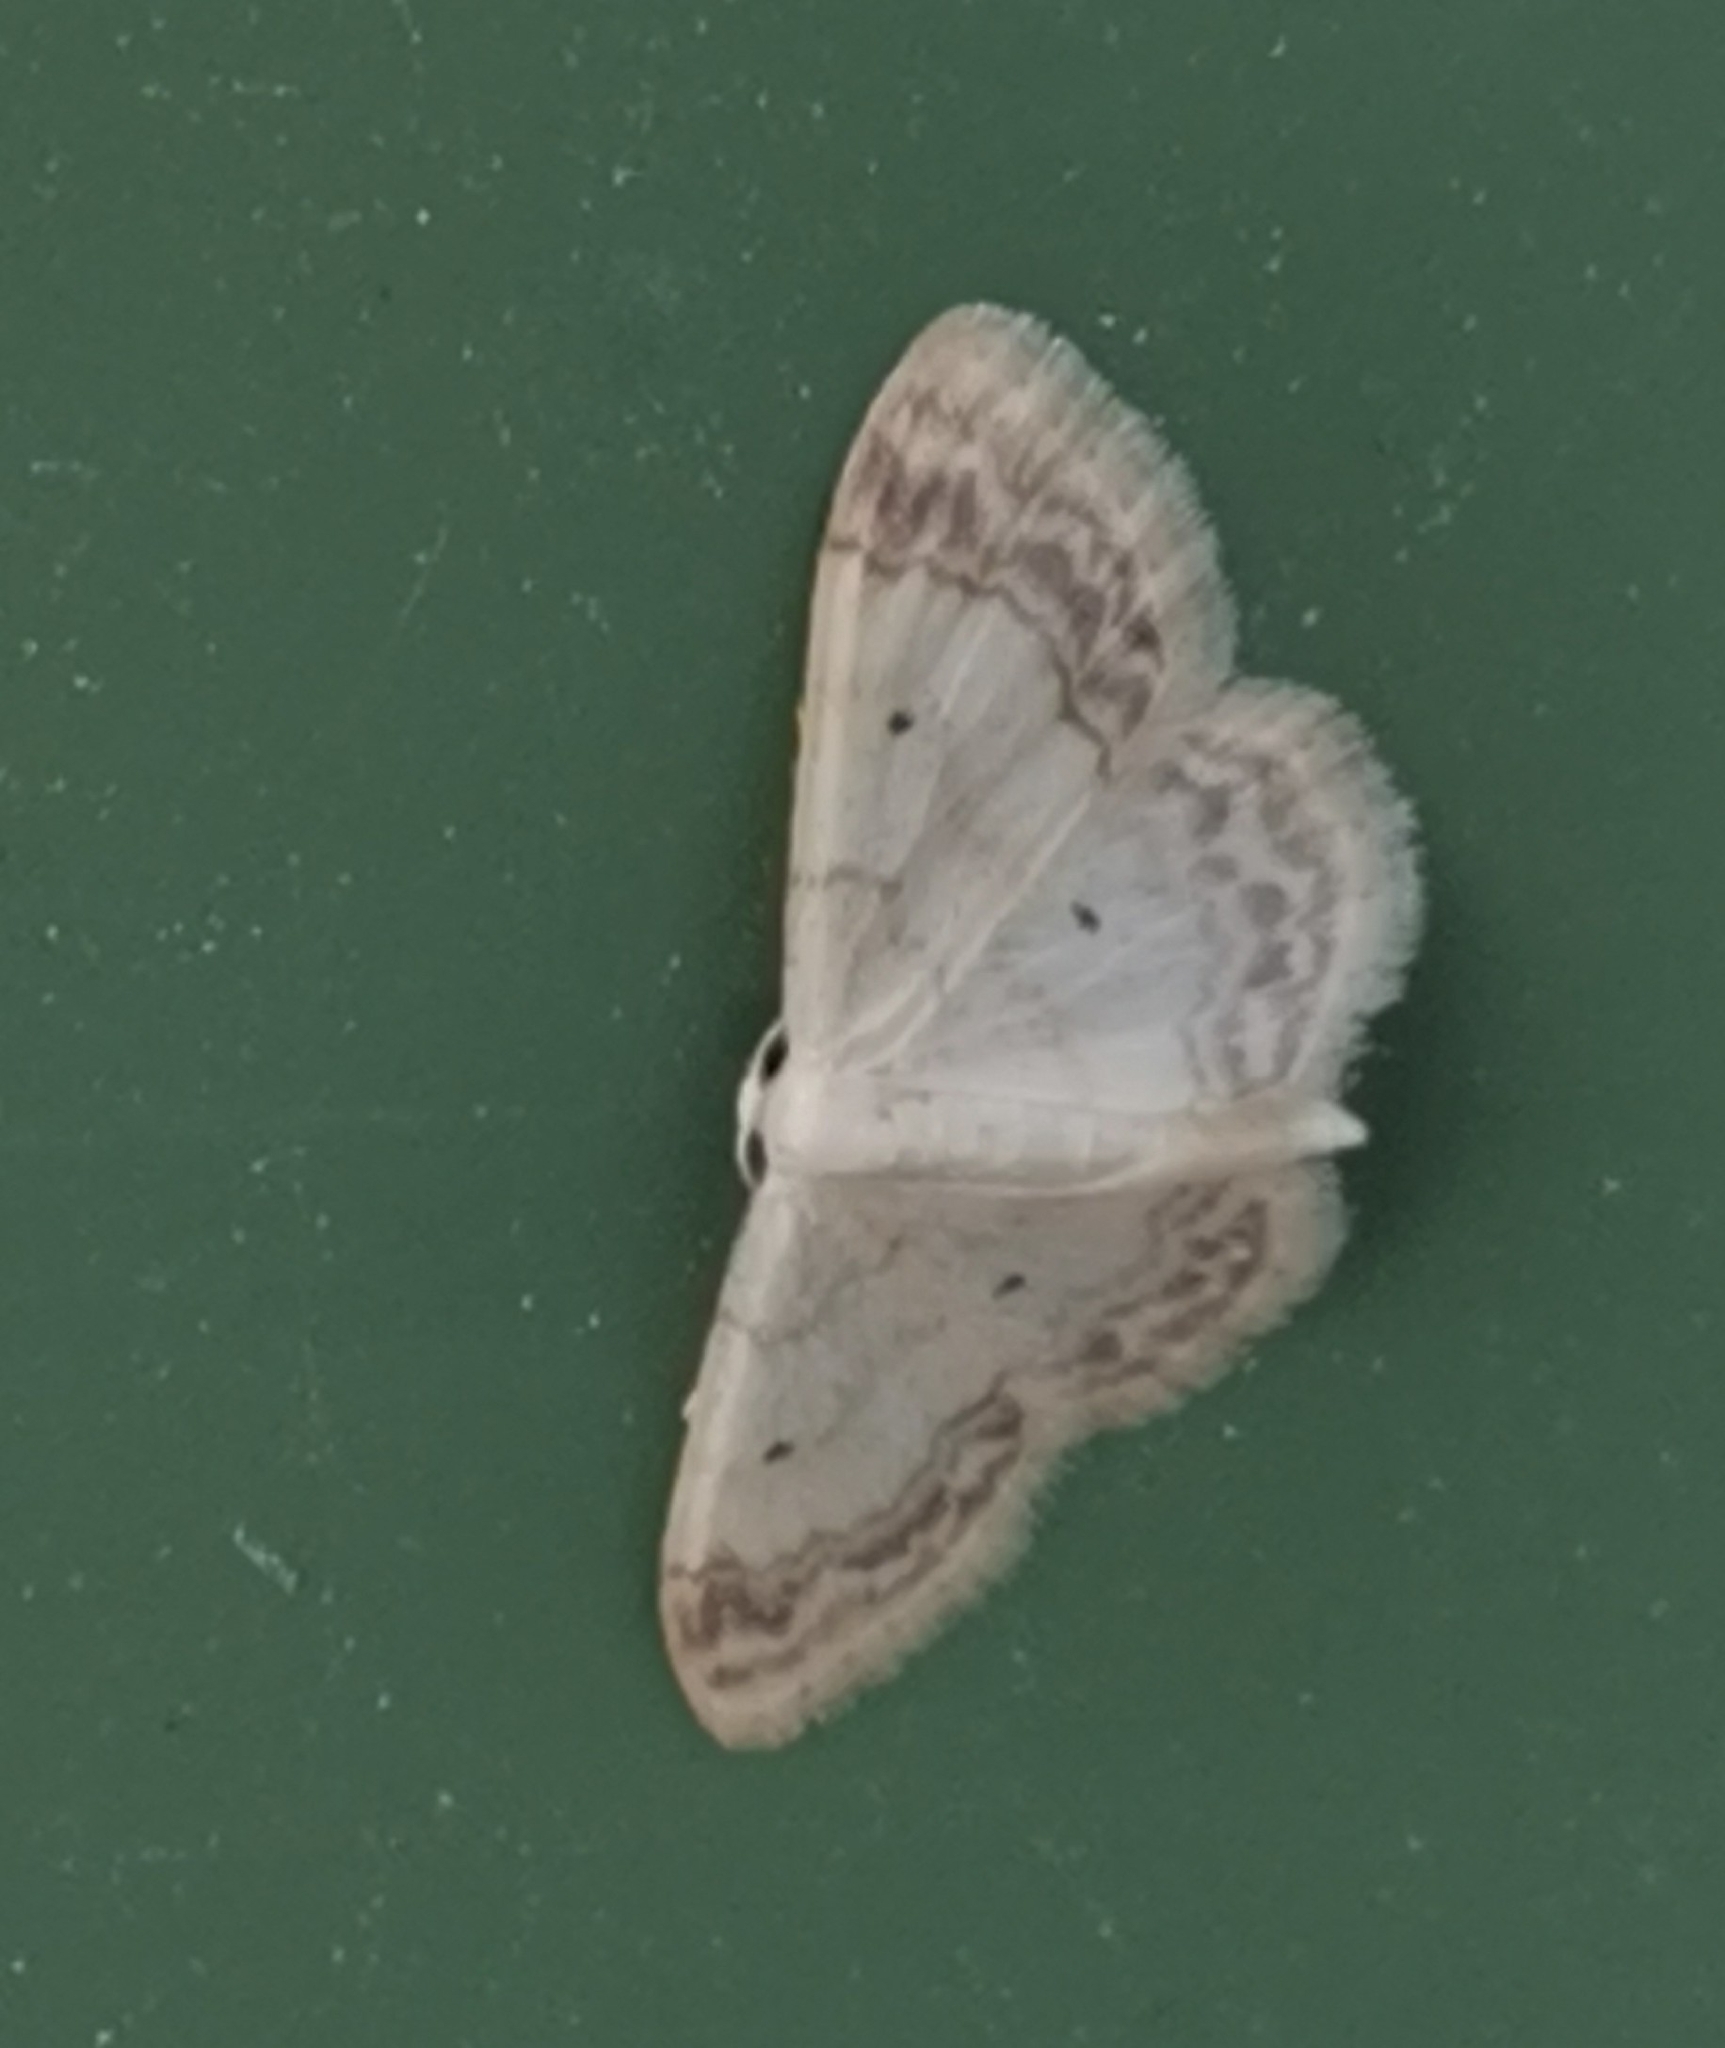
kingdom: Animalia
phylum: Arthropoda
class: Insecta
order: Lepidoptera
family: Geometridae
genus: Idaea
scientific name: Idaea biselata
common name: Small fan-footed wave
